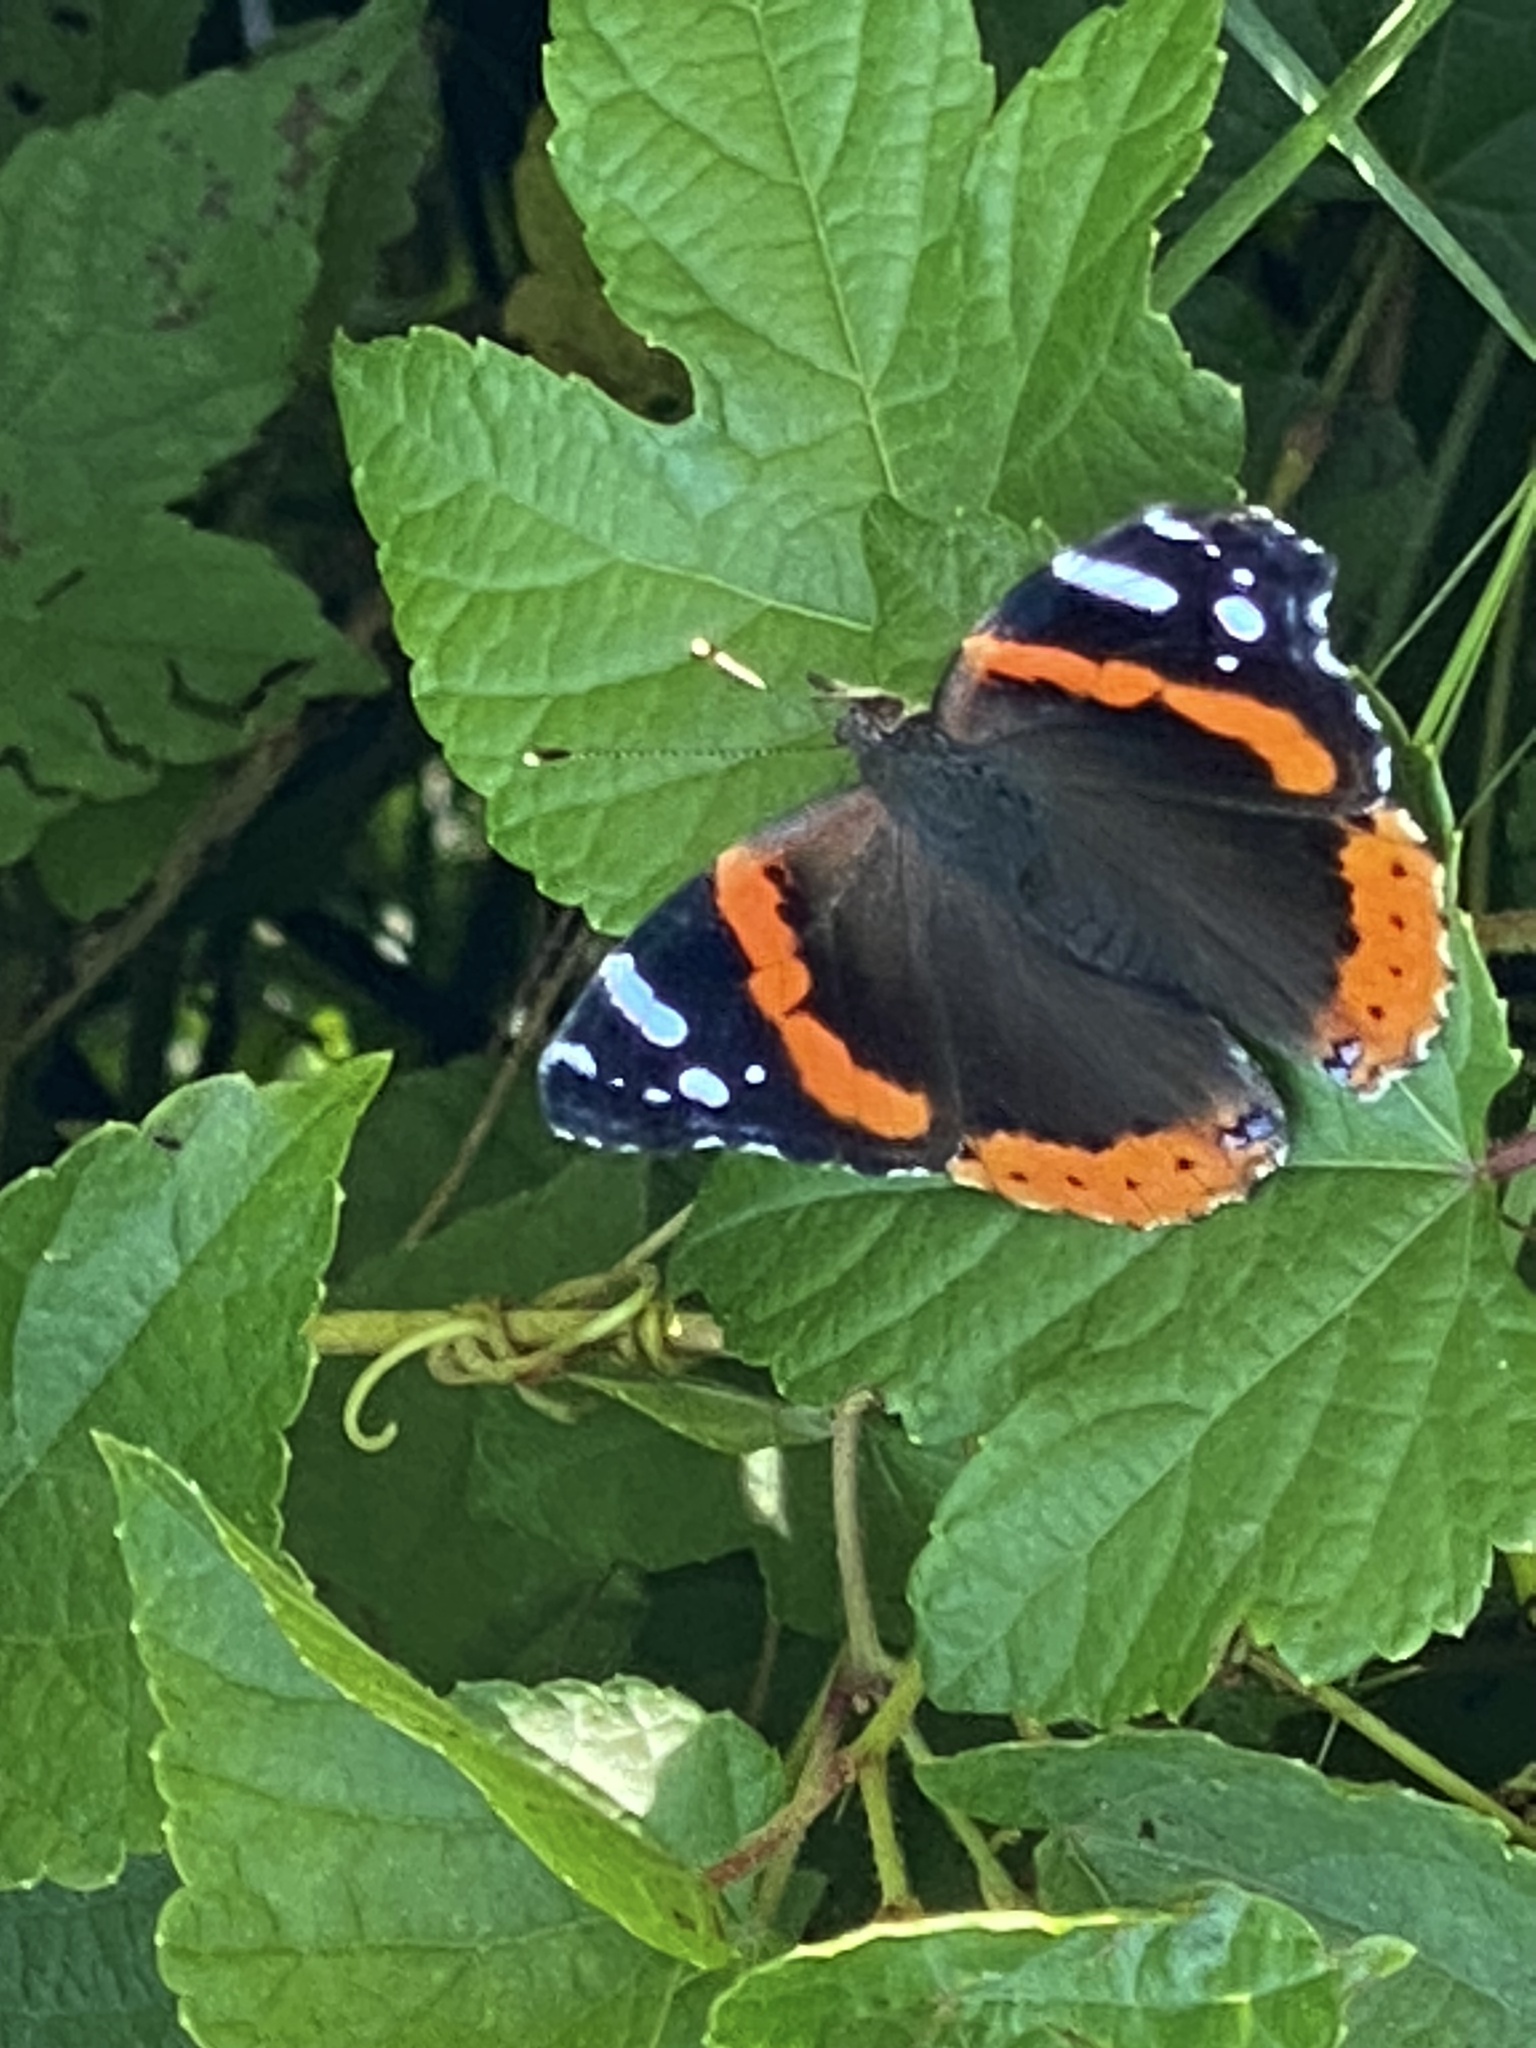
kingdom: Animalia
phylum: Arthropoda
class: Insecta
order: Lepidoptera
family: Nymphalidae
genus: Vanessa
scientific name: Vanessa atalanta
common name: Red admiral
